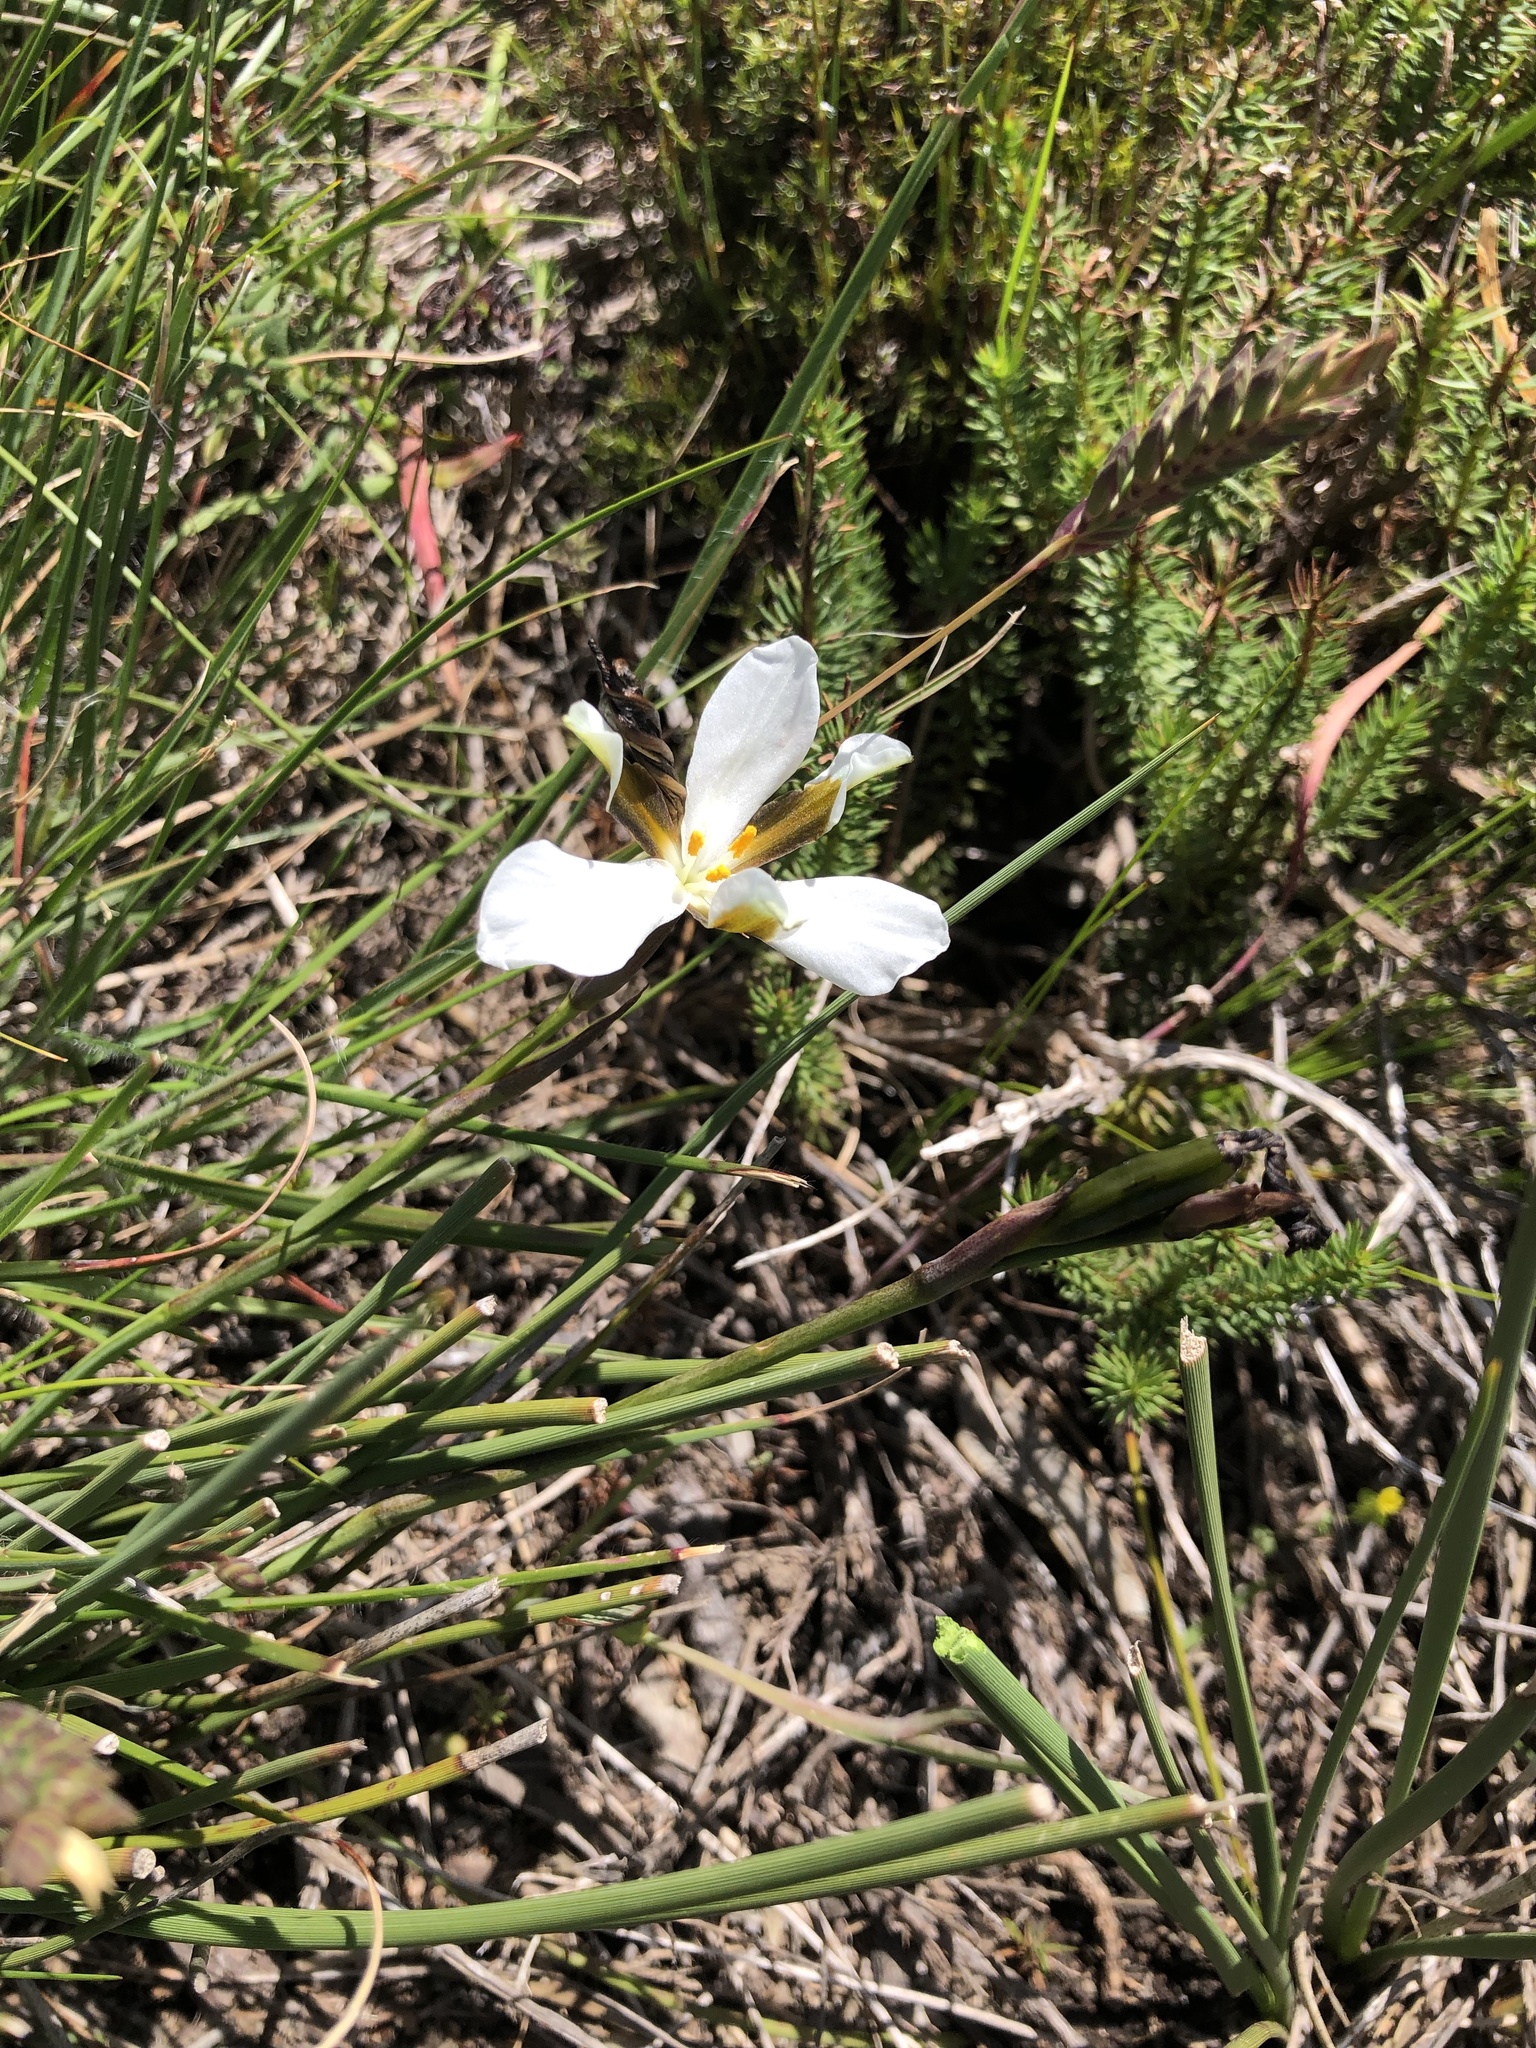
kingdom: Plantae
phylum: Tracheophyta
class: Liliopsida
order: Asparagales
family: Iridaceae
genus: Aristea
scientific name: Aristea teretifolia
